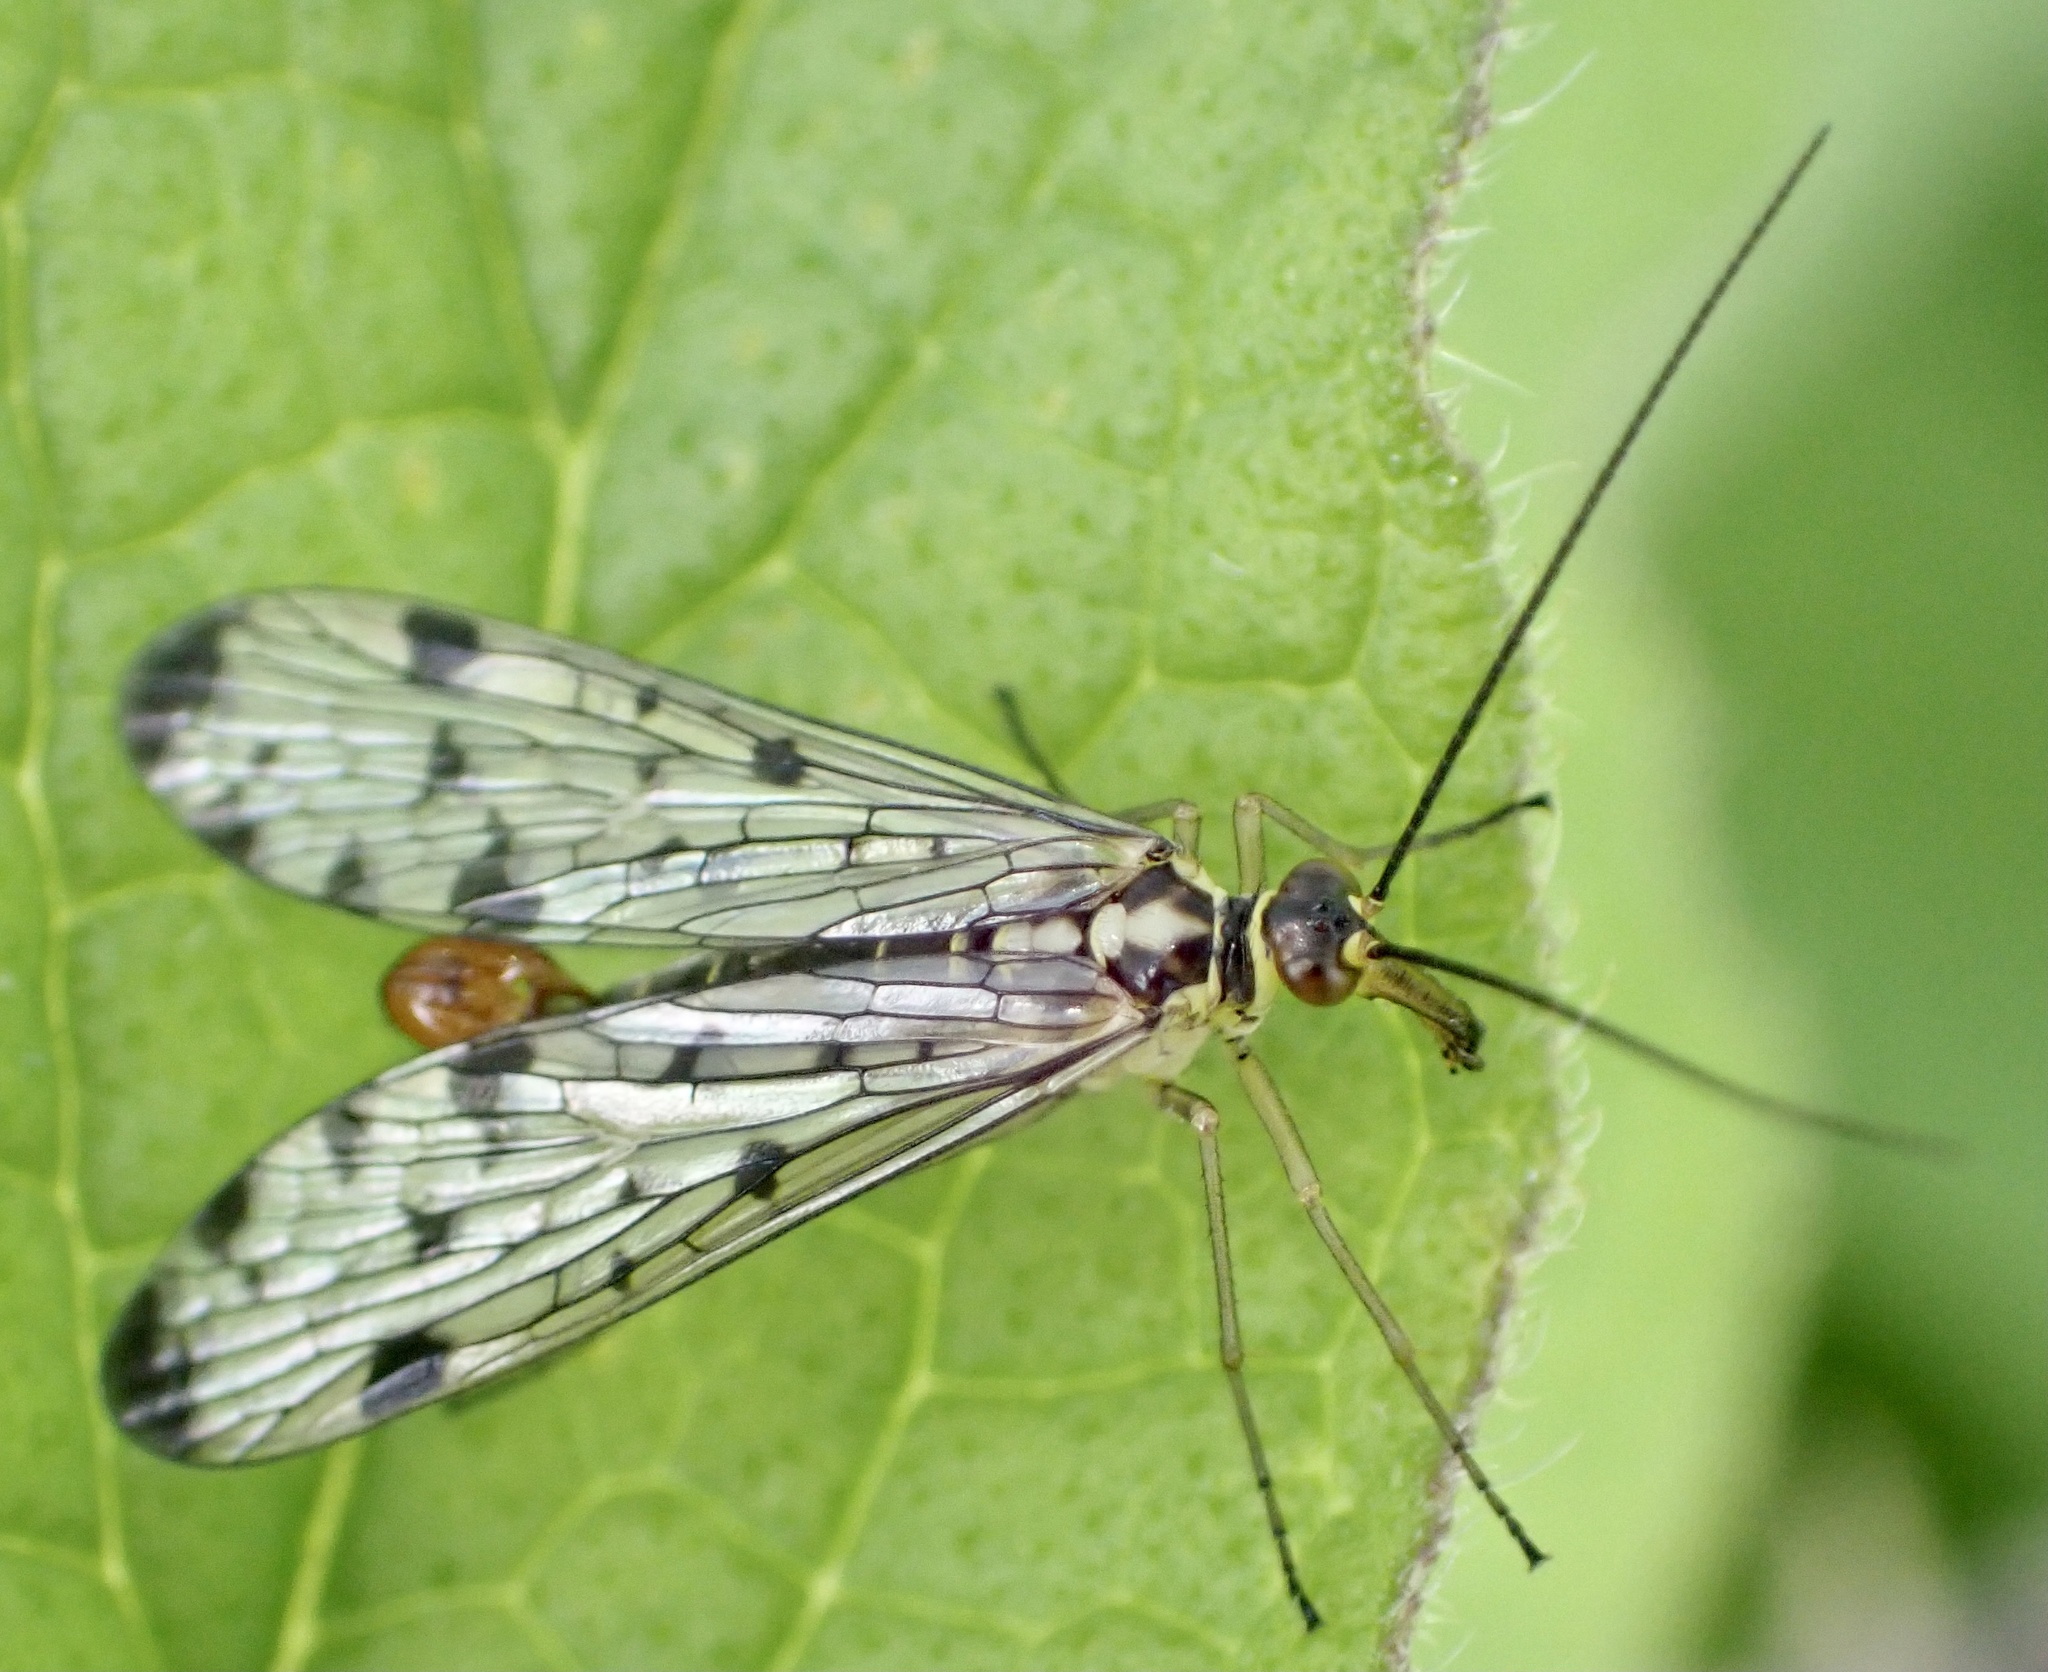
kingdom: Animalia
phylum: Arthropoda
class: Insecta
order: Mecoptera
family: Panorpidae
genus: Panorpa
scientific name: Panorpa germanica
